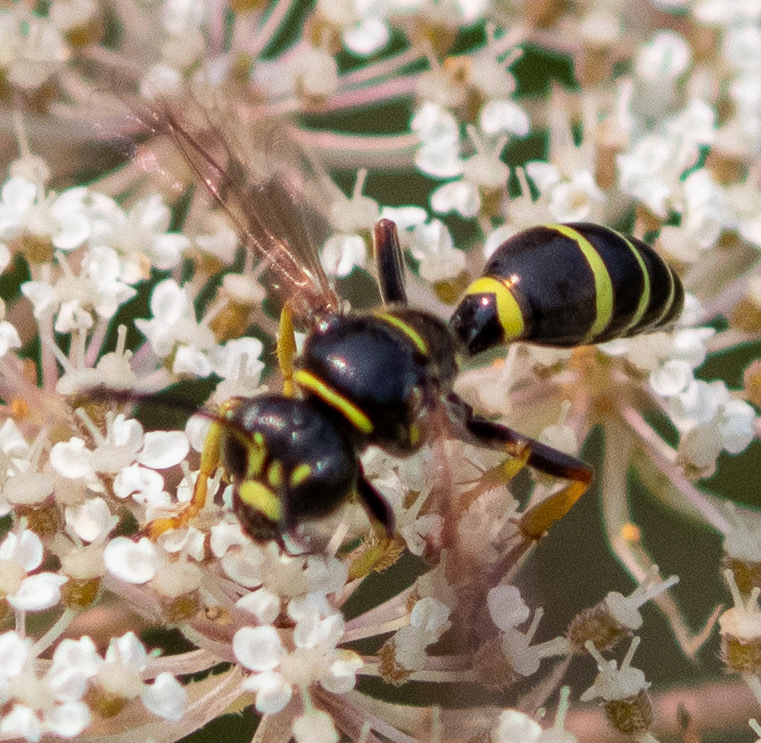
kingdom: Animalia
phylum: Arthropoda
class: Insecta
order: Hymenoptera
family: Crabronidae
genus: Gorytes
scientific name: Gorytes
